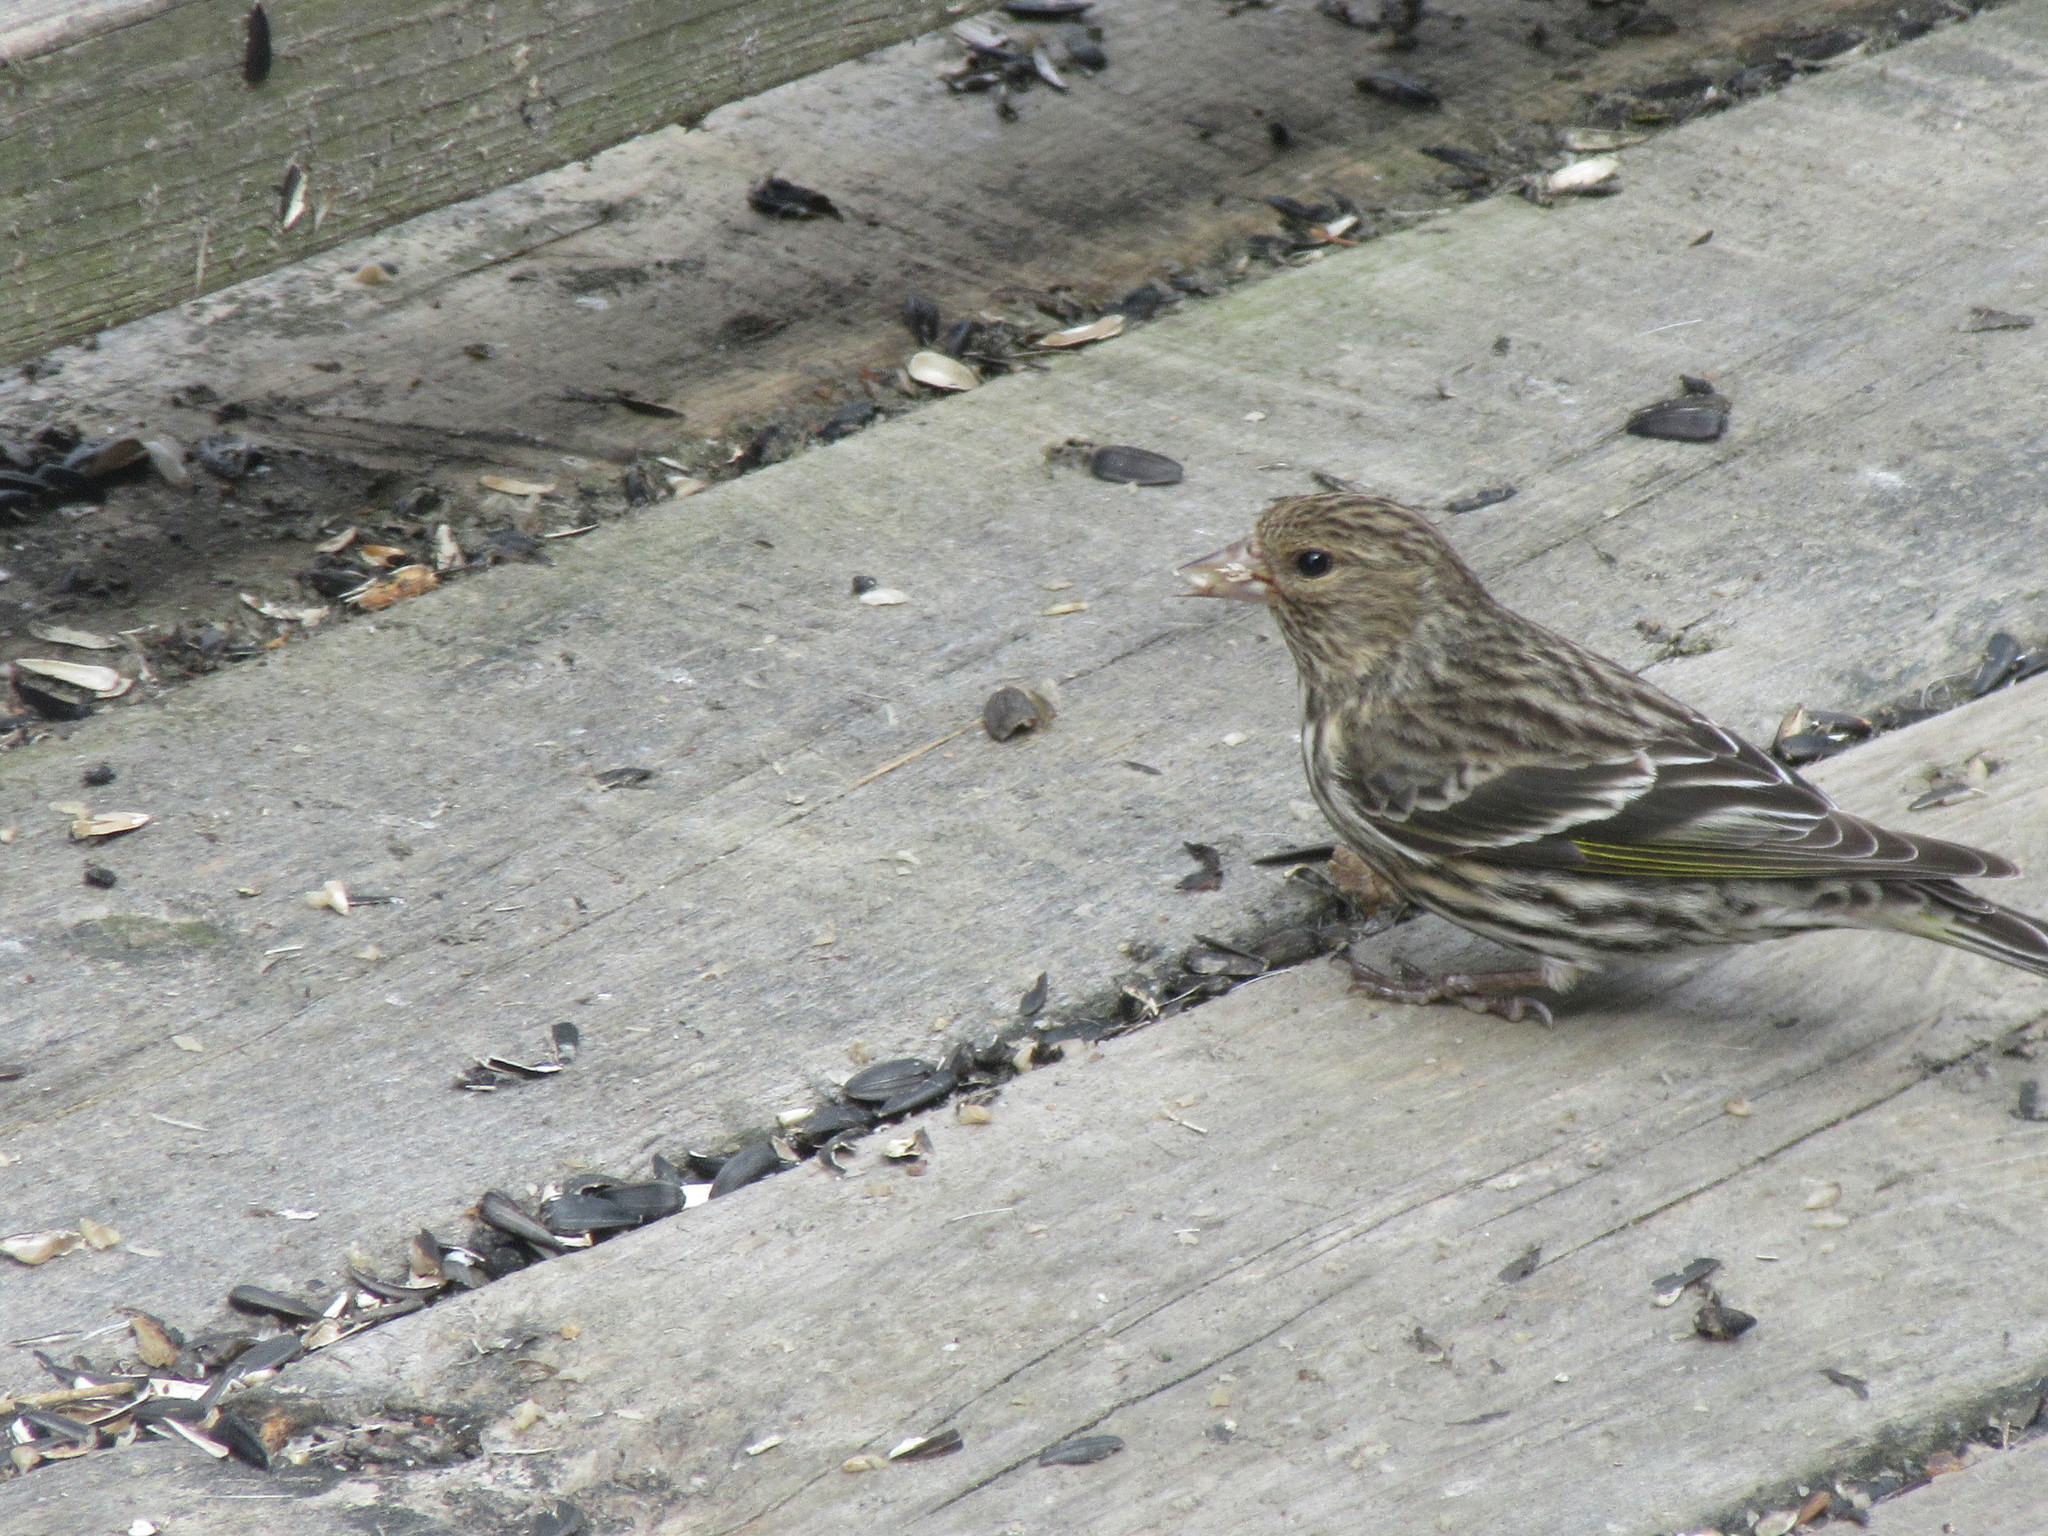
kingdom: Animalia
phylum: Chordata
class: Aves
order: Passeriformes
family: Fringillidae
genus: Spinus
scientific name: Spinus pinus
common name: Pine siskin
